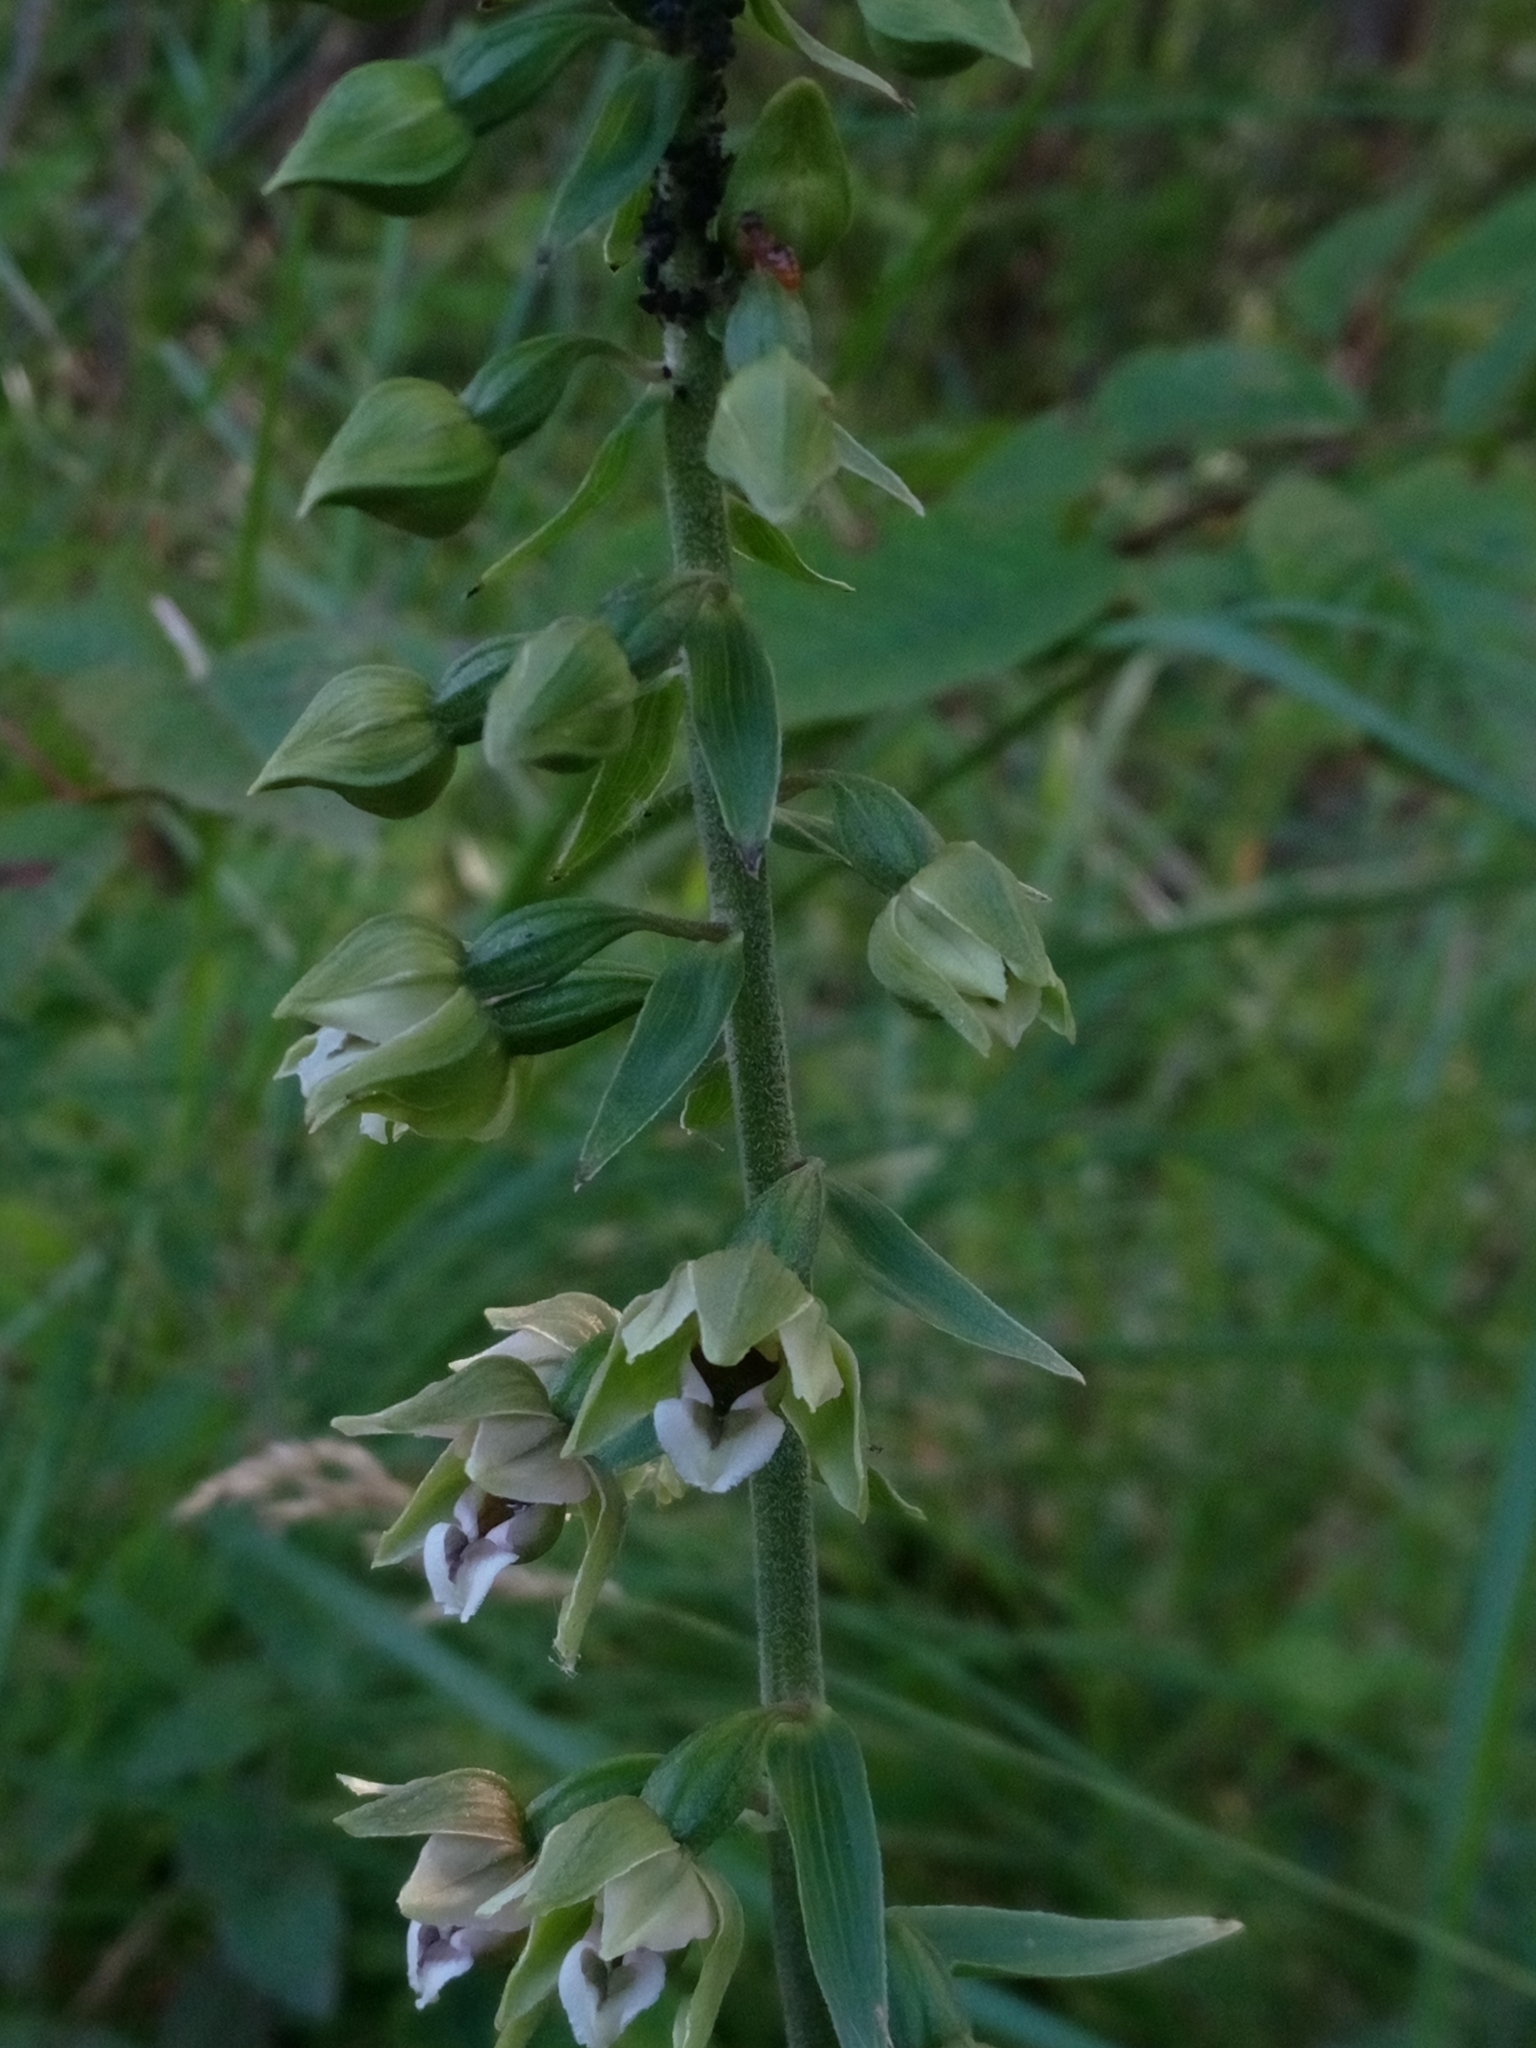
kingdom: Plantae
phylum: Tracheophyta
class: Liliopsida
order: Asparagales
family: Orchidaceae
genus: Epipactis
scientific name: Epipactis helleborine
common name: Broad-leaved helleborine
